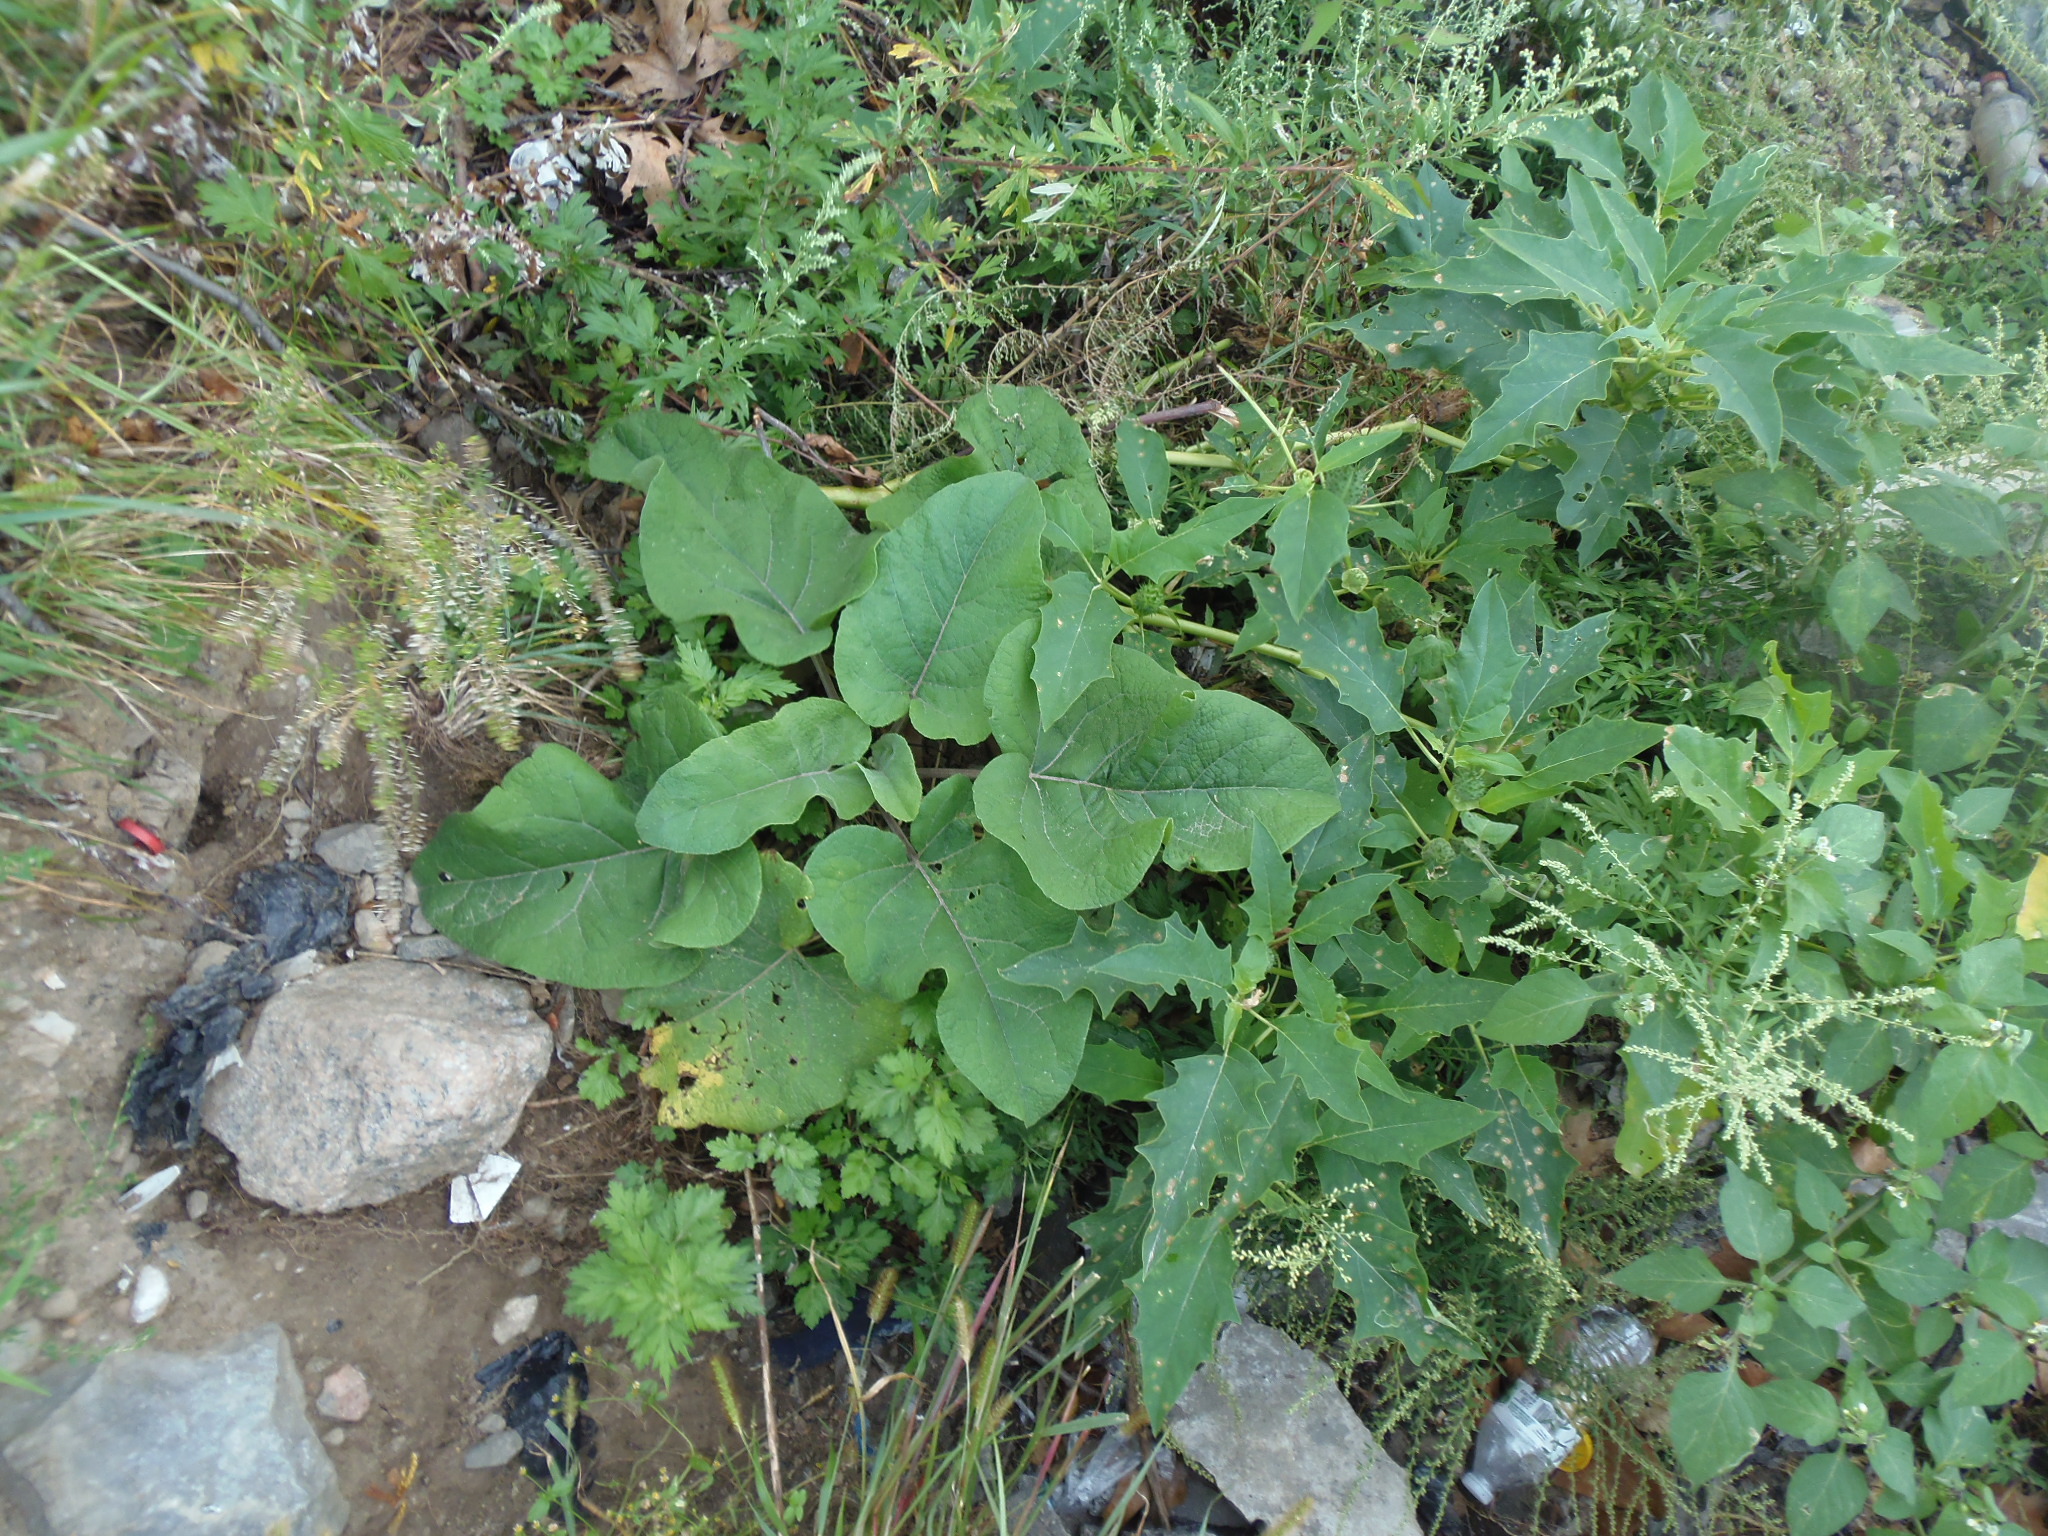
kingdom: Plantae
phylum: Tracheophyta
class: Magnoliopsida
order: Asterales
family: Asteraceae
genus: Arctium
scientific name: Arctium
